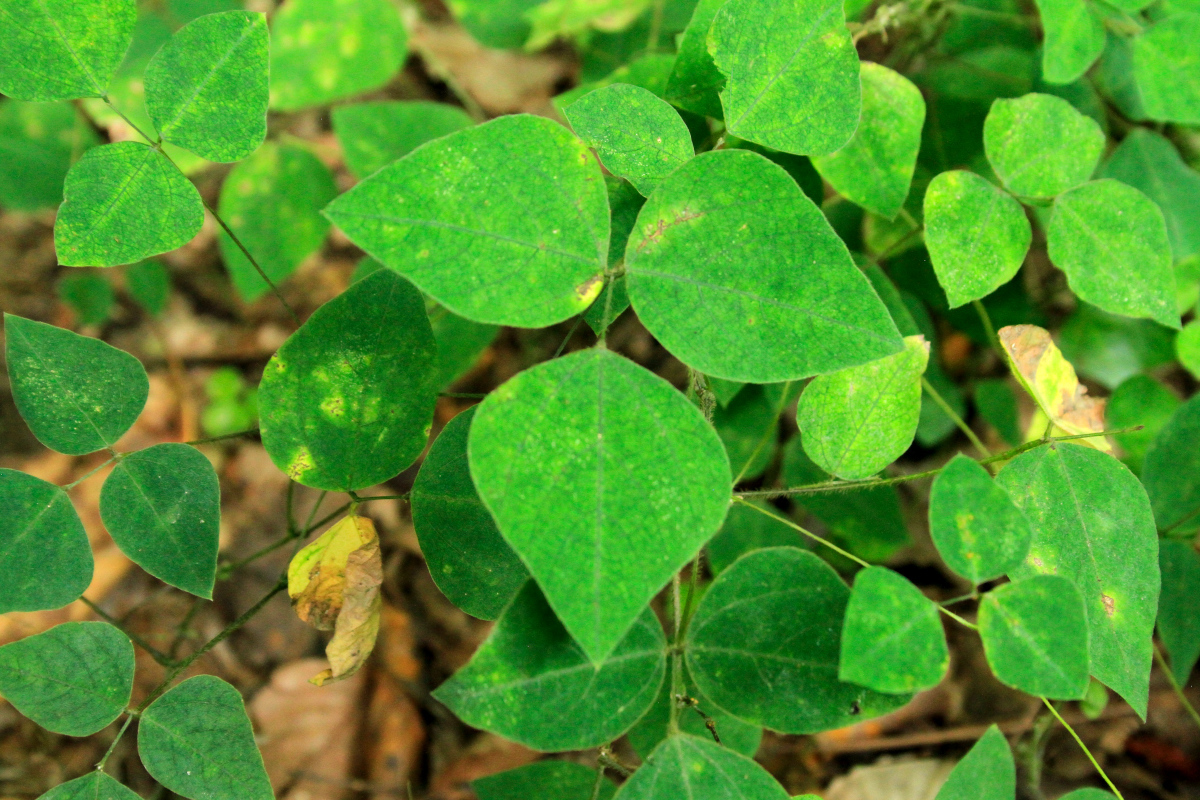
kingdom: Plantae
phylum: Tracheophyta
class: Magnoliopsida
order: Fabales
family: Fabaceae
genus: Amphicarpaea
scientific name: Amphicarpaea bracteata
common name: American hog peanut
